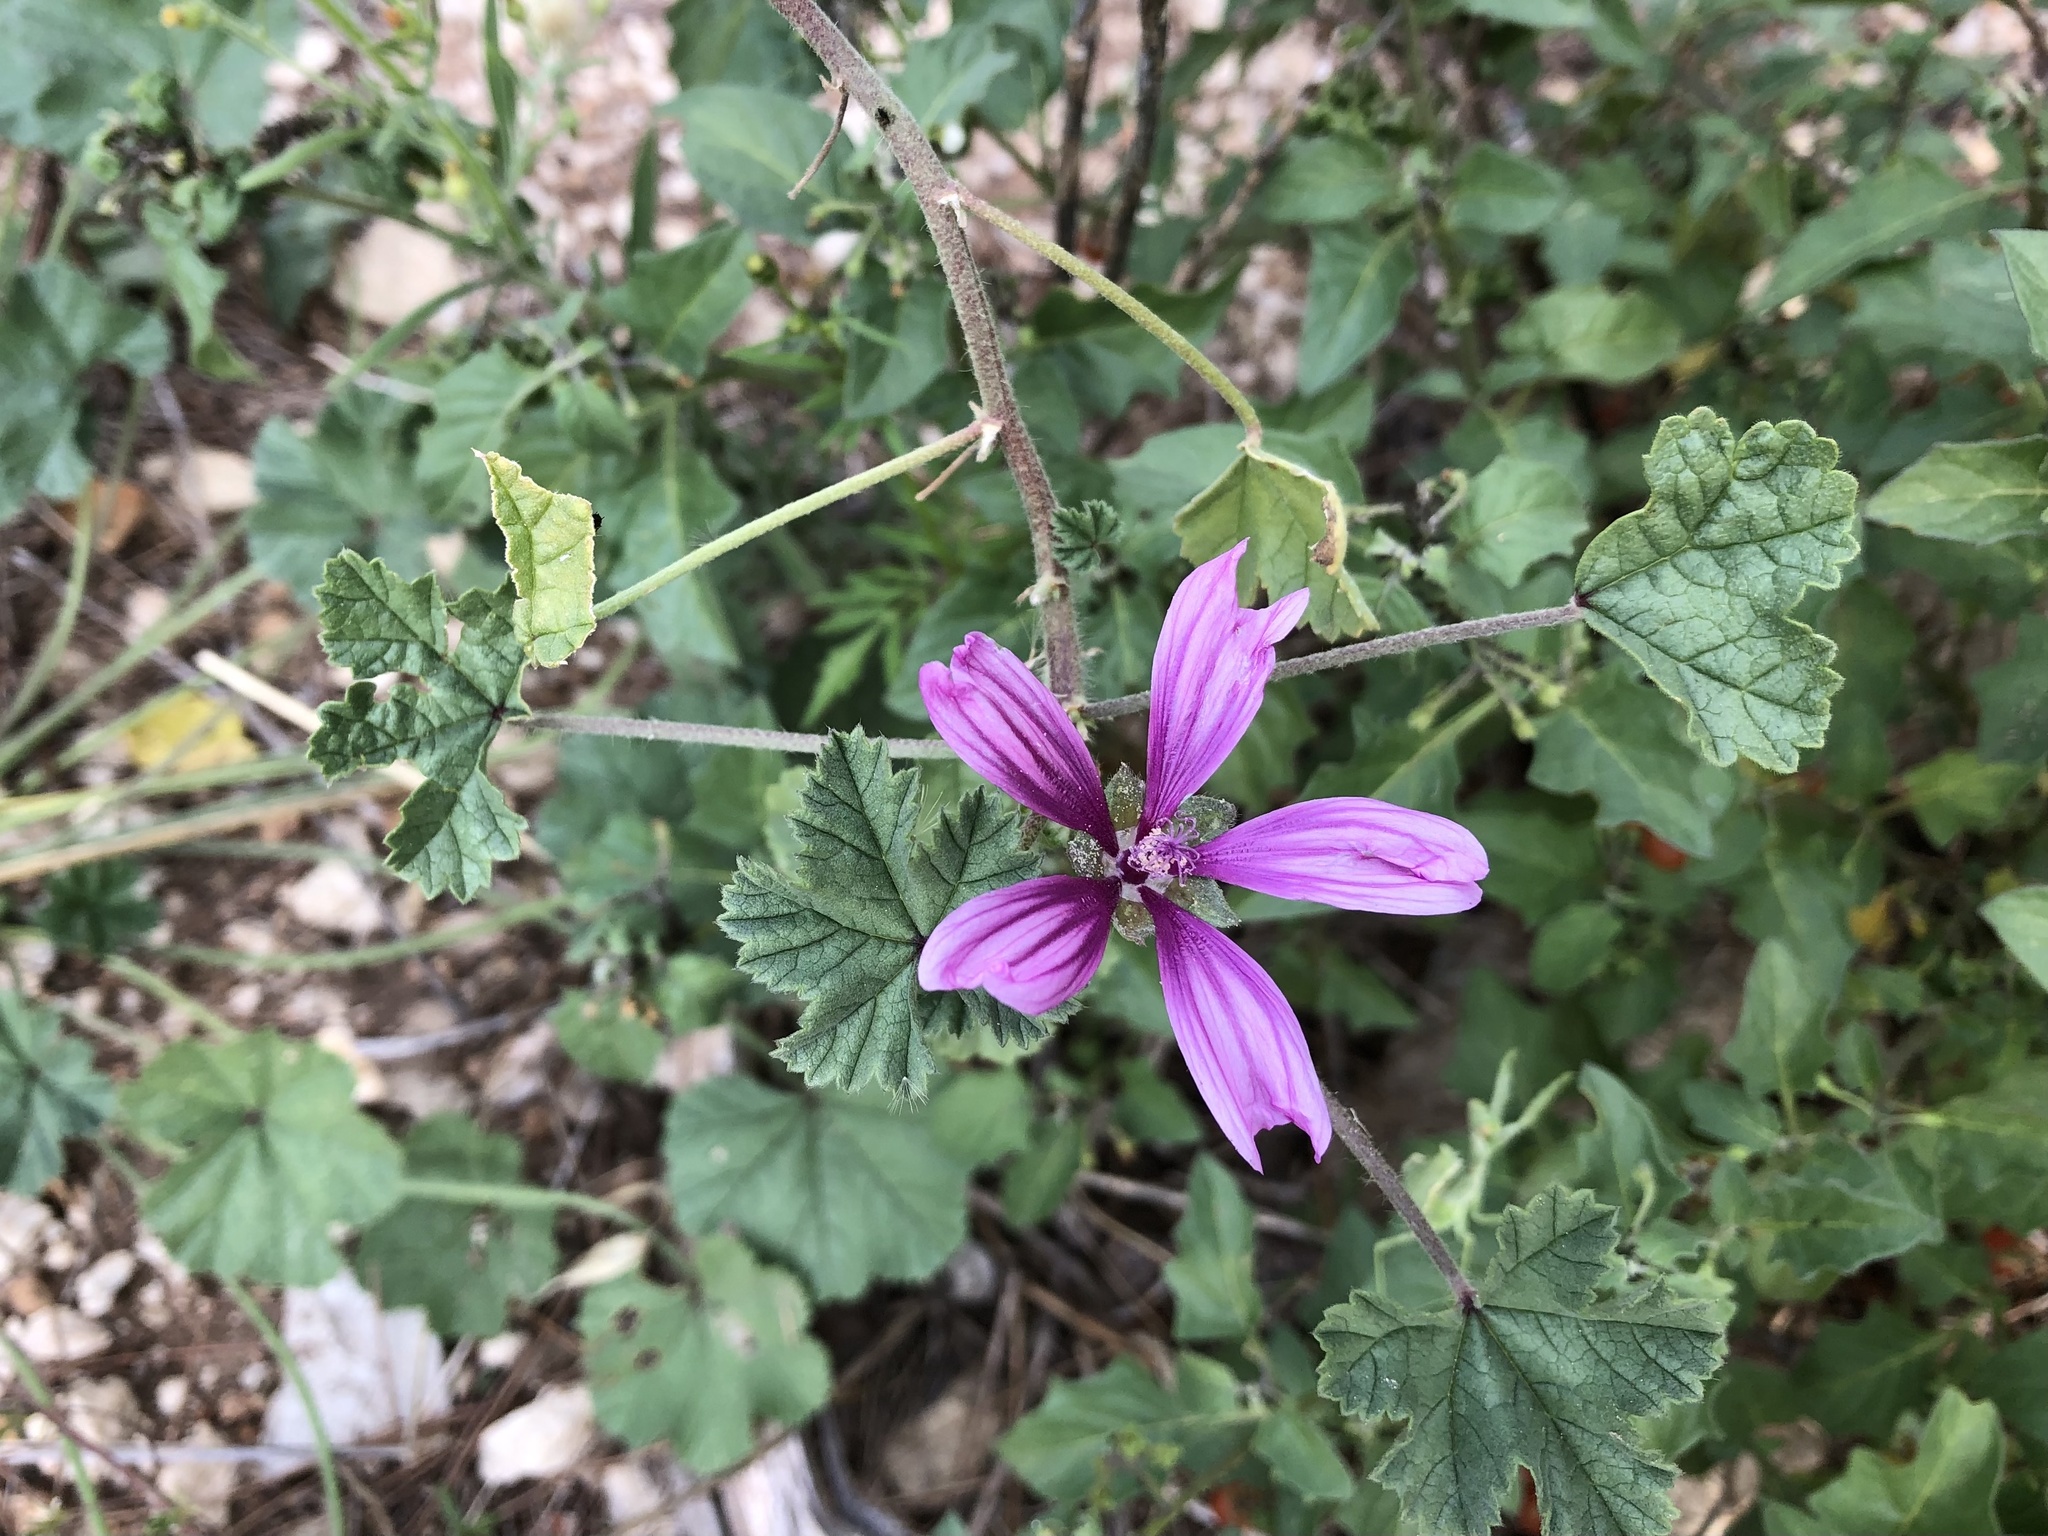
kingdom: Plantae
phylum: Tracheophyta
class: Magnoliopsida
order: Malvales
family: Malvaceae
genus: Malva
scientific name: Malva sylvestris
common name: Common mallow
